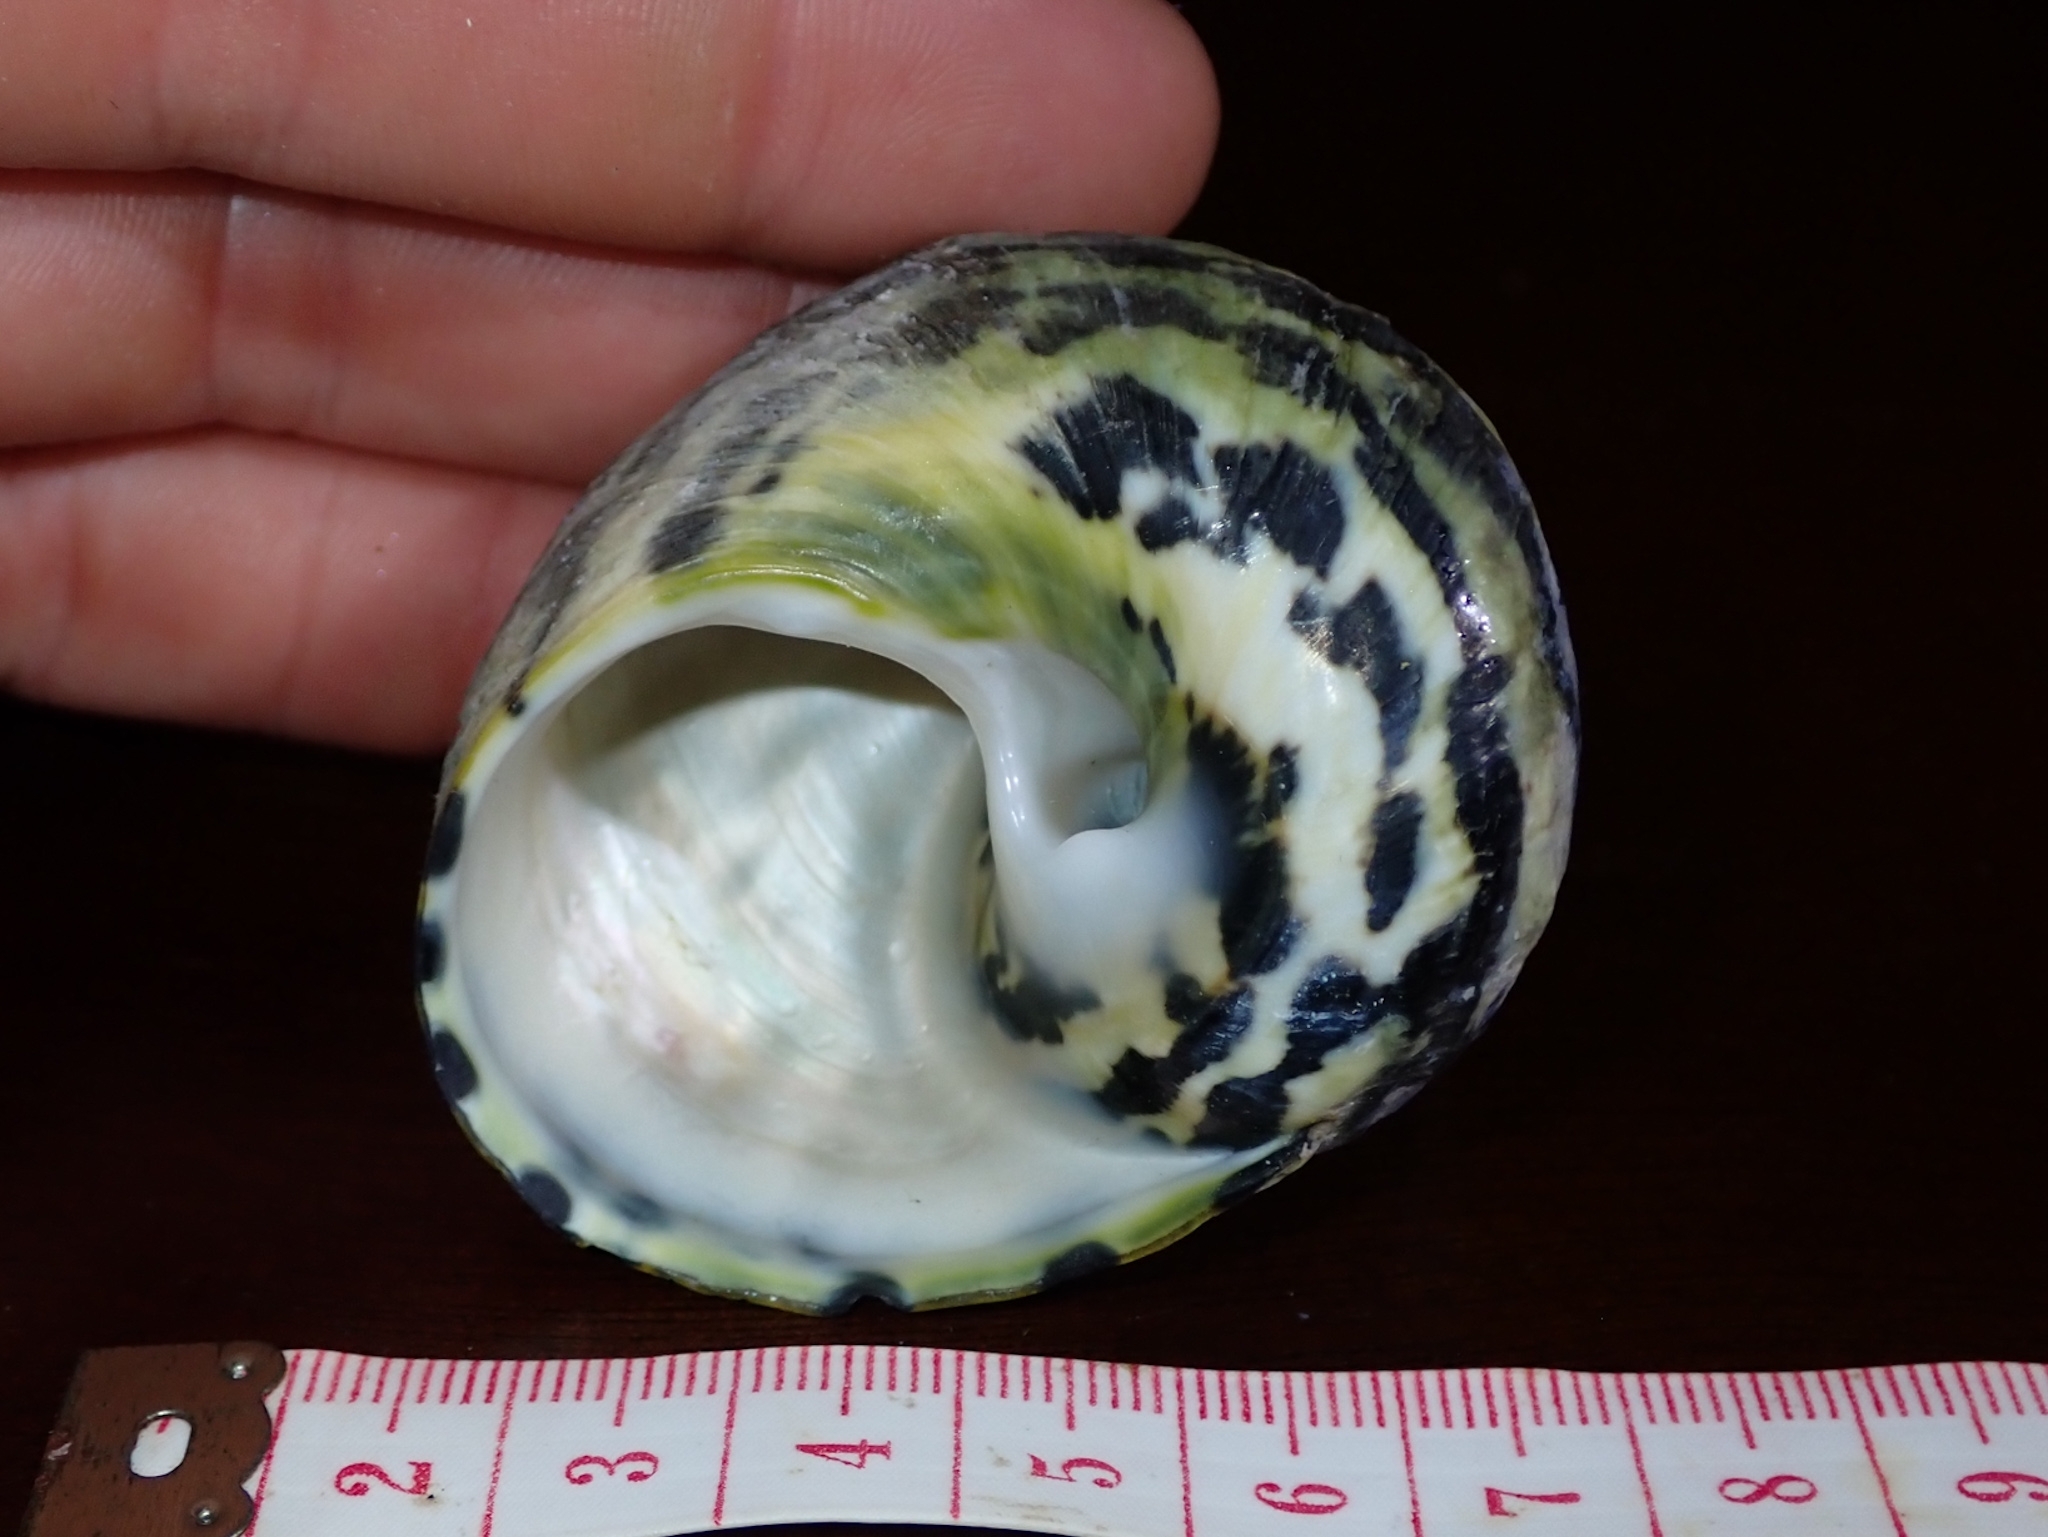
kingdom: Animalia
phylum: Mollusca
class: Gastropoda
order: Trochida
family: Tegulidae
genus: Cittarium
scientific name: Cittarium pica
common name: West indian topshell
